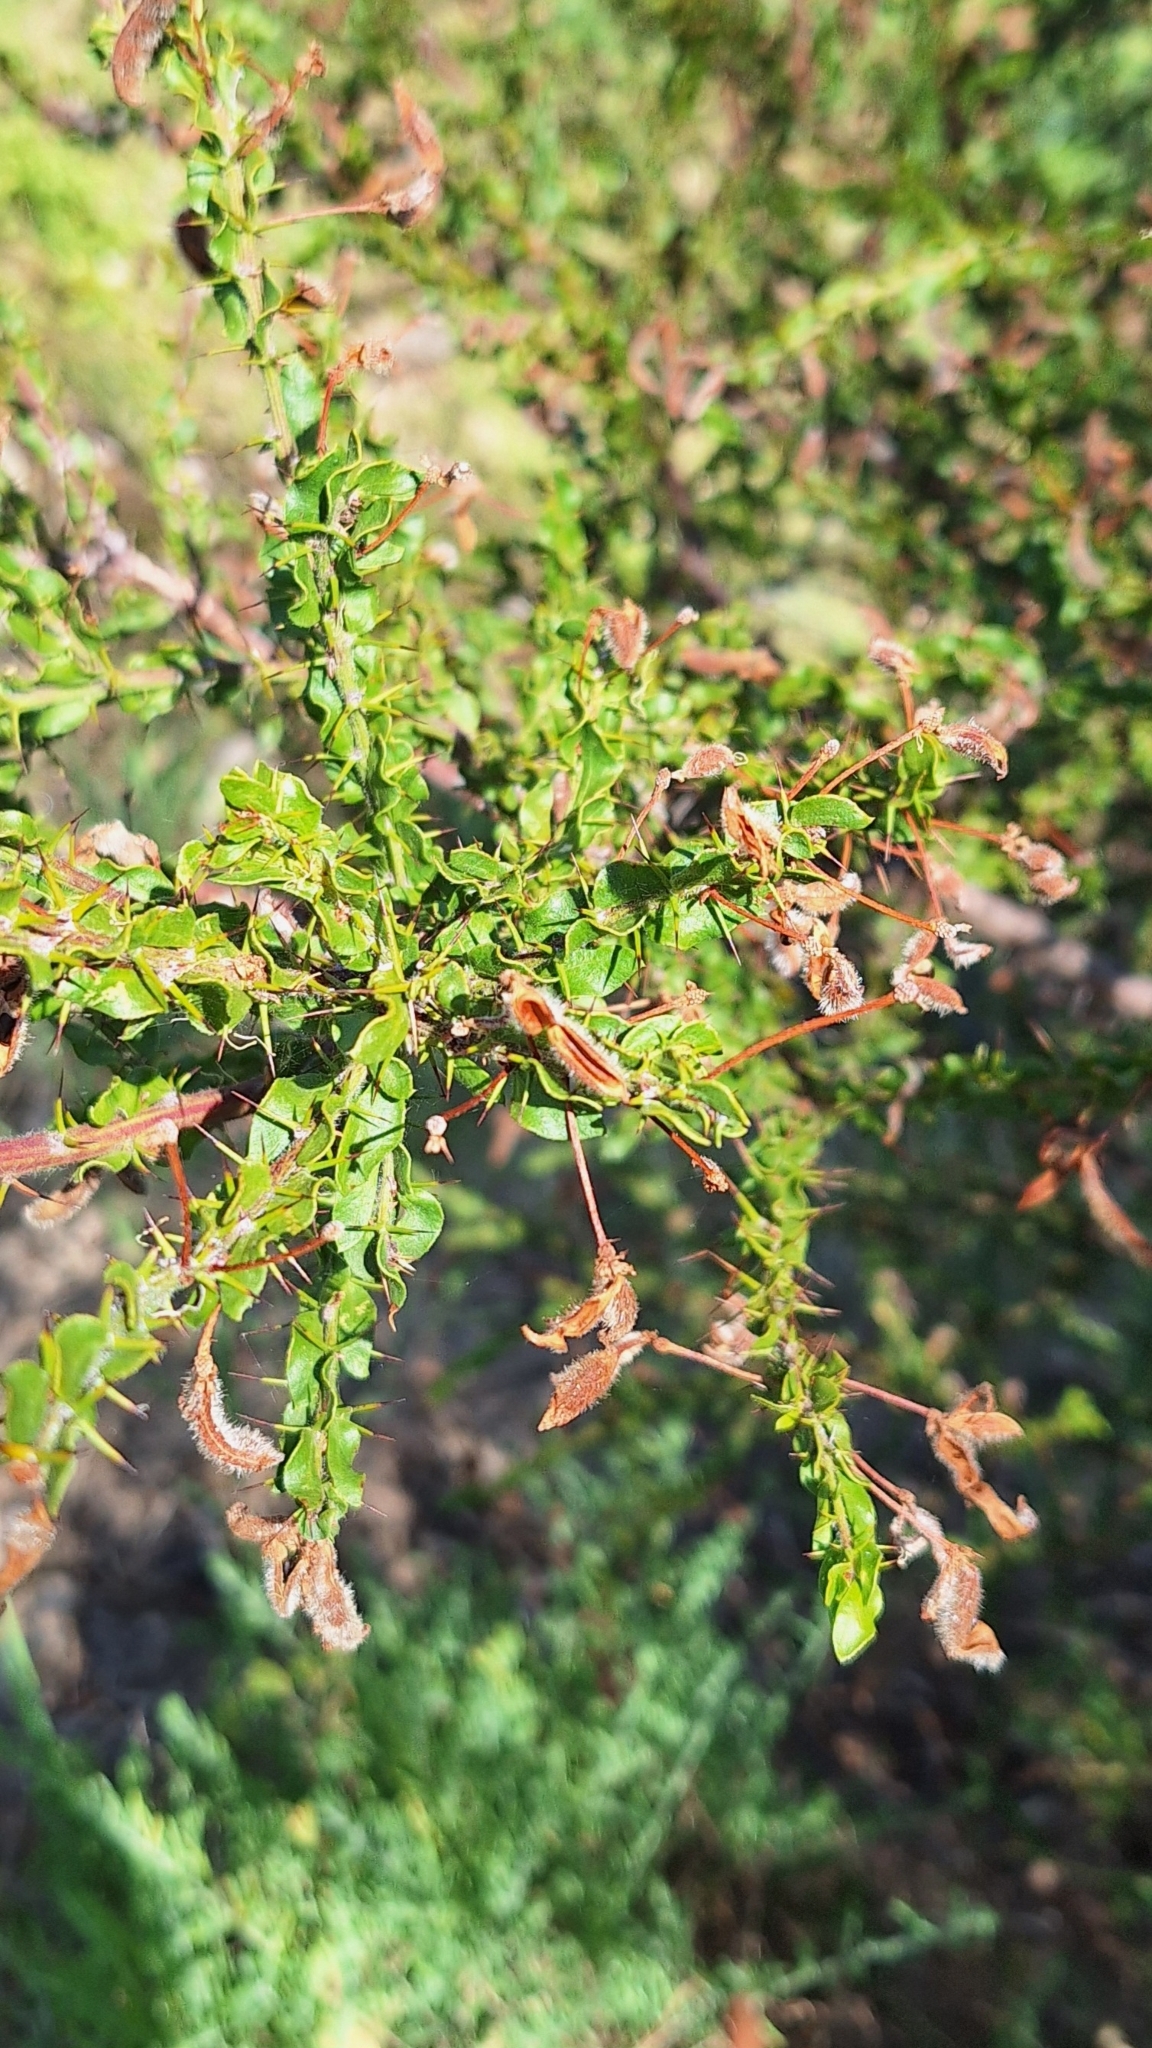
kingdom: Plantae
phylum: Tracheophyta
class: Magnoliopsida
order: Fabales
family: Fabaceae
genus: Acacia
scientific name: Acacia paradoxa
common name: Paradox acacia
